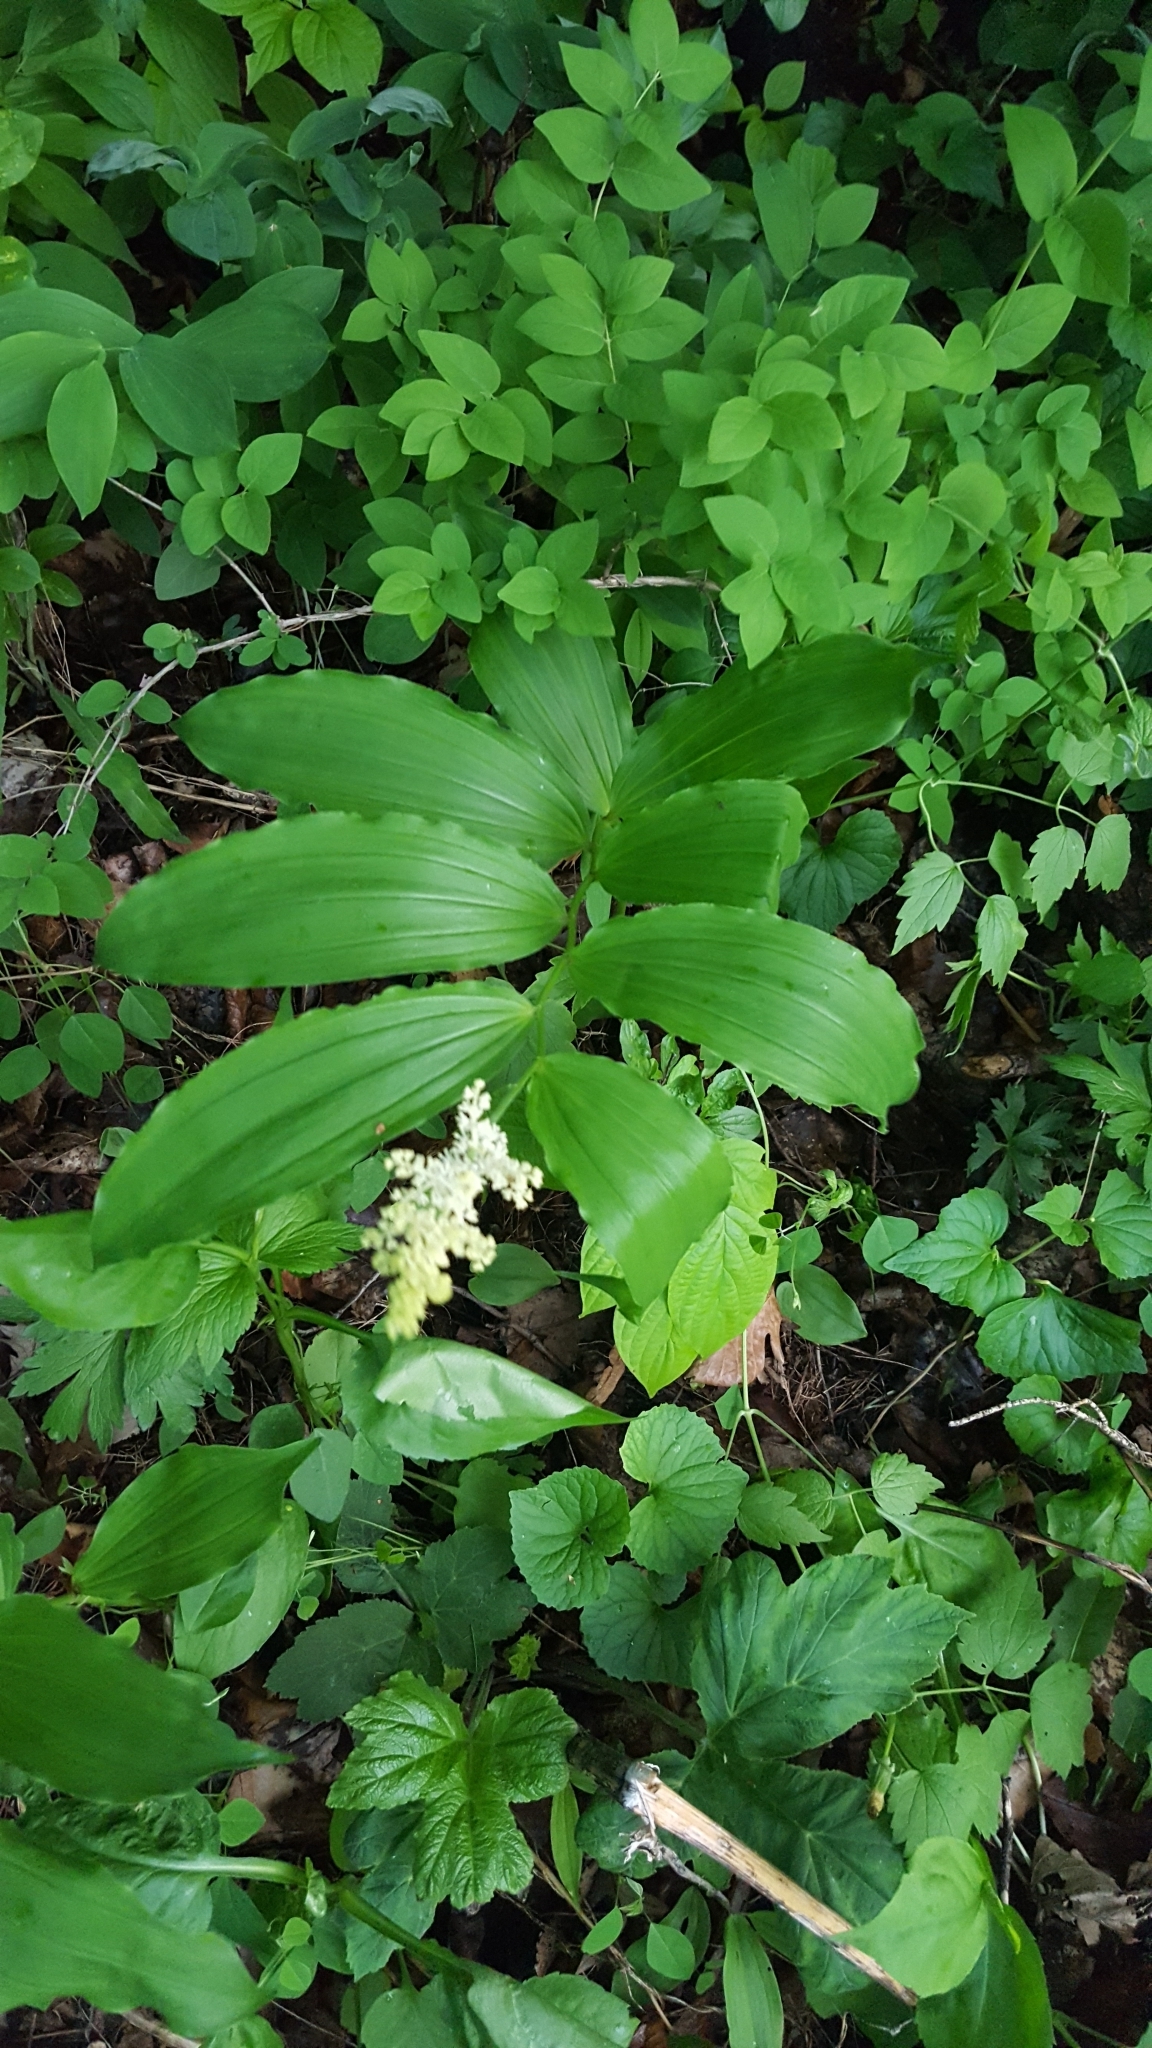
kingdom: Plantae
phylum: Tracheophyta
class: Liliopsida
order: Asparagales
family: Asparagaceae
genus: Maianthemum
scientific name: Maianthemum racemosum
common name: False spikenard
